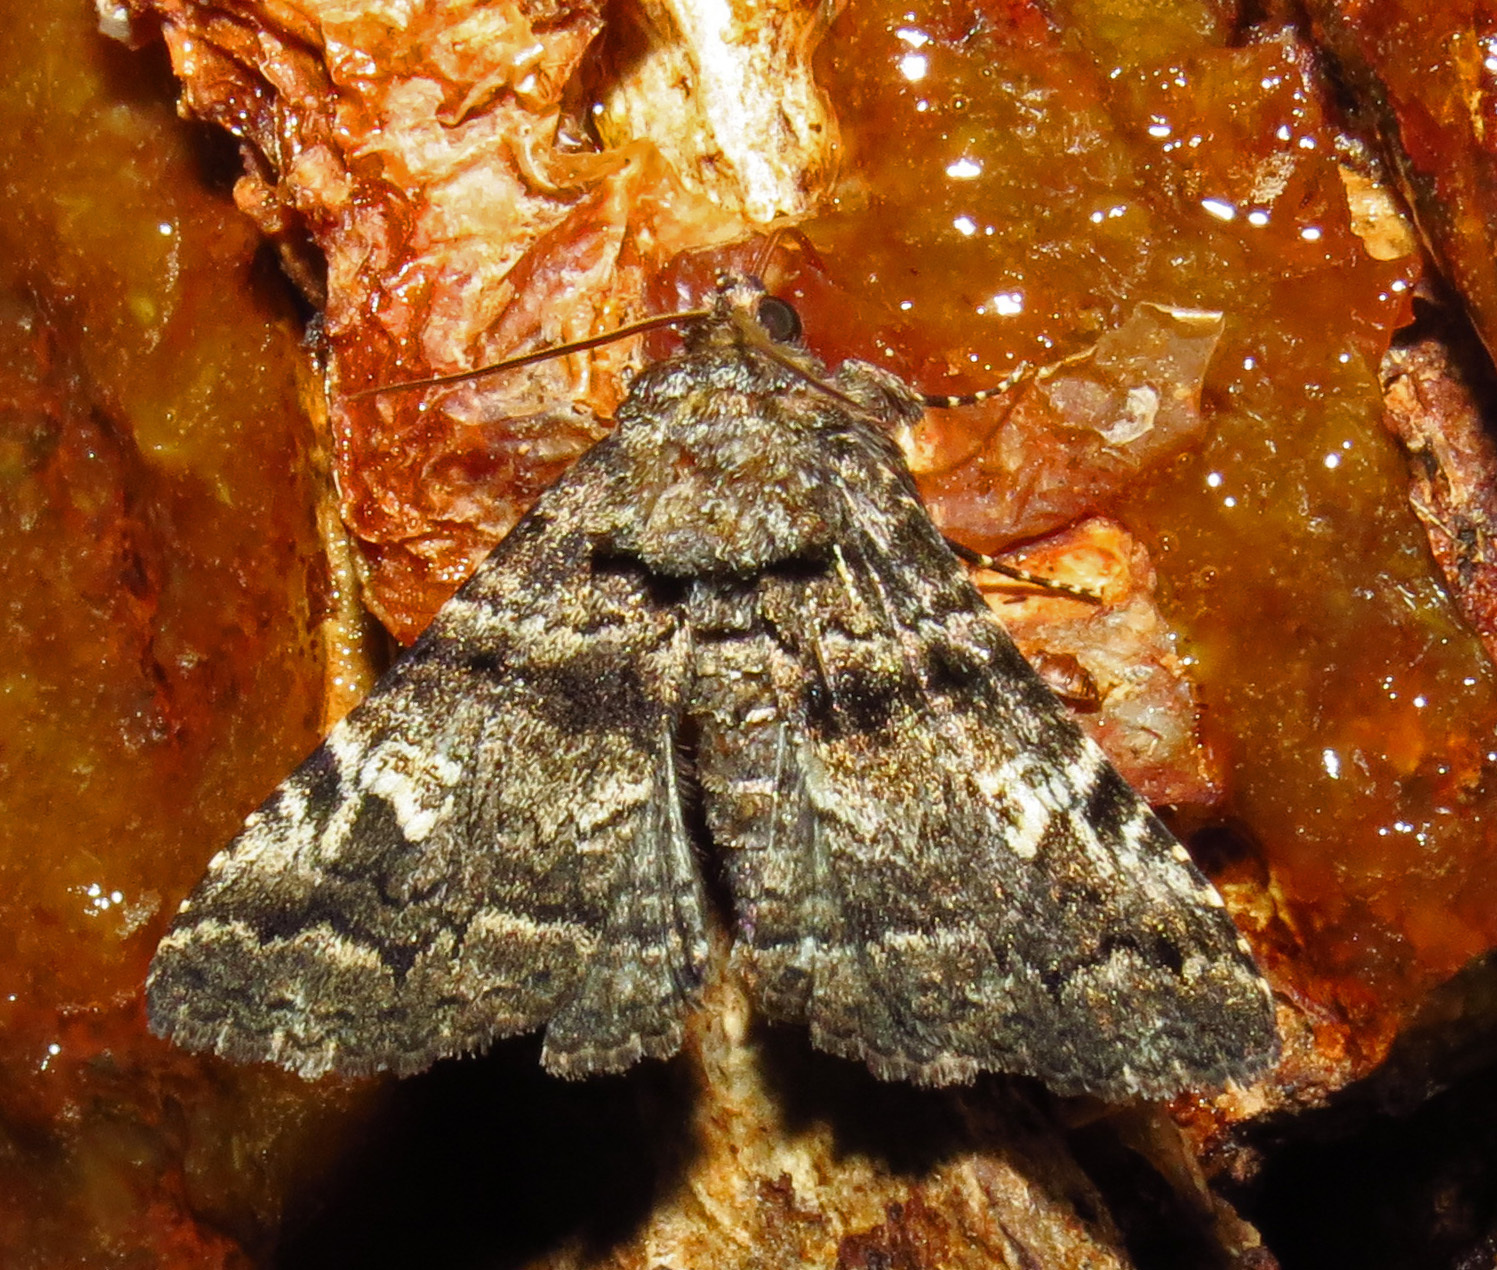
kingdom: Animalia
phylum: Arthropoda
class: Insecta
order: Lepidoptera
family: Erebidae
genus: Metria
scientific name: Metria amella
